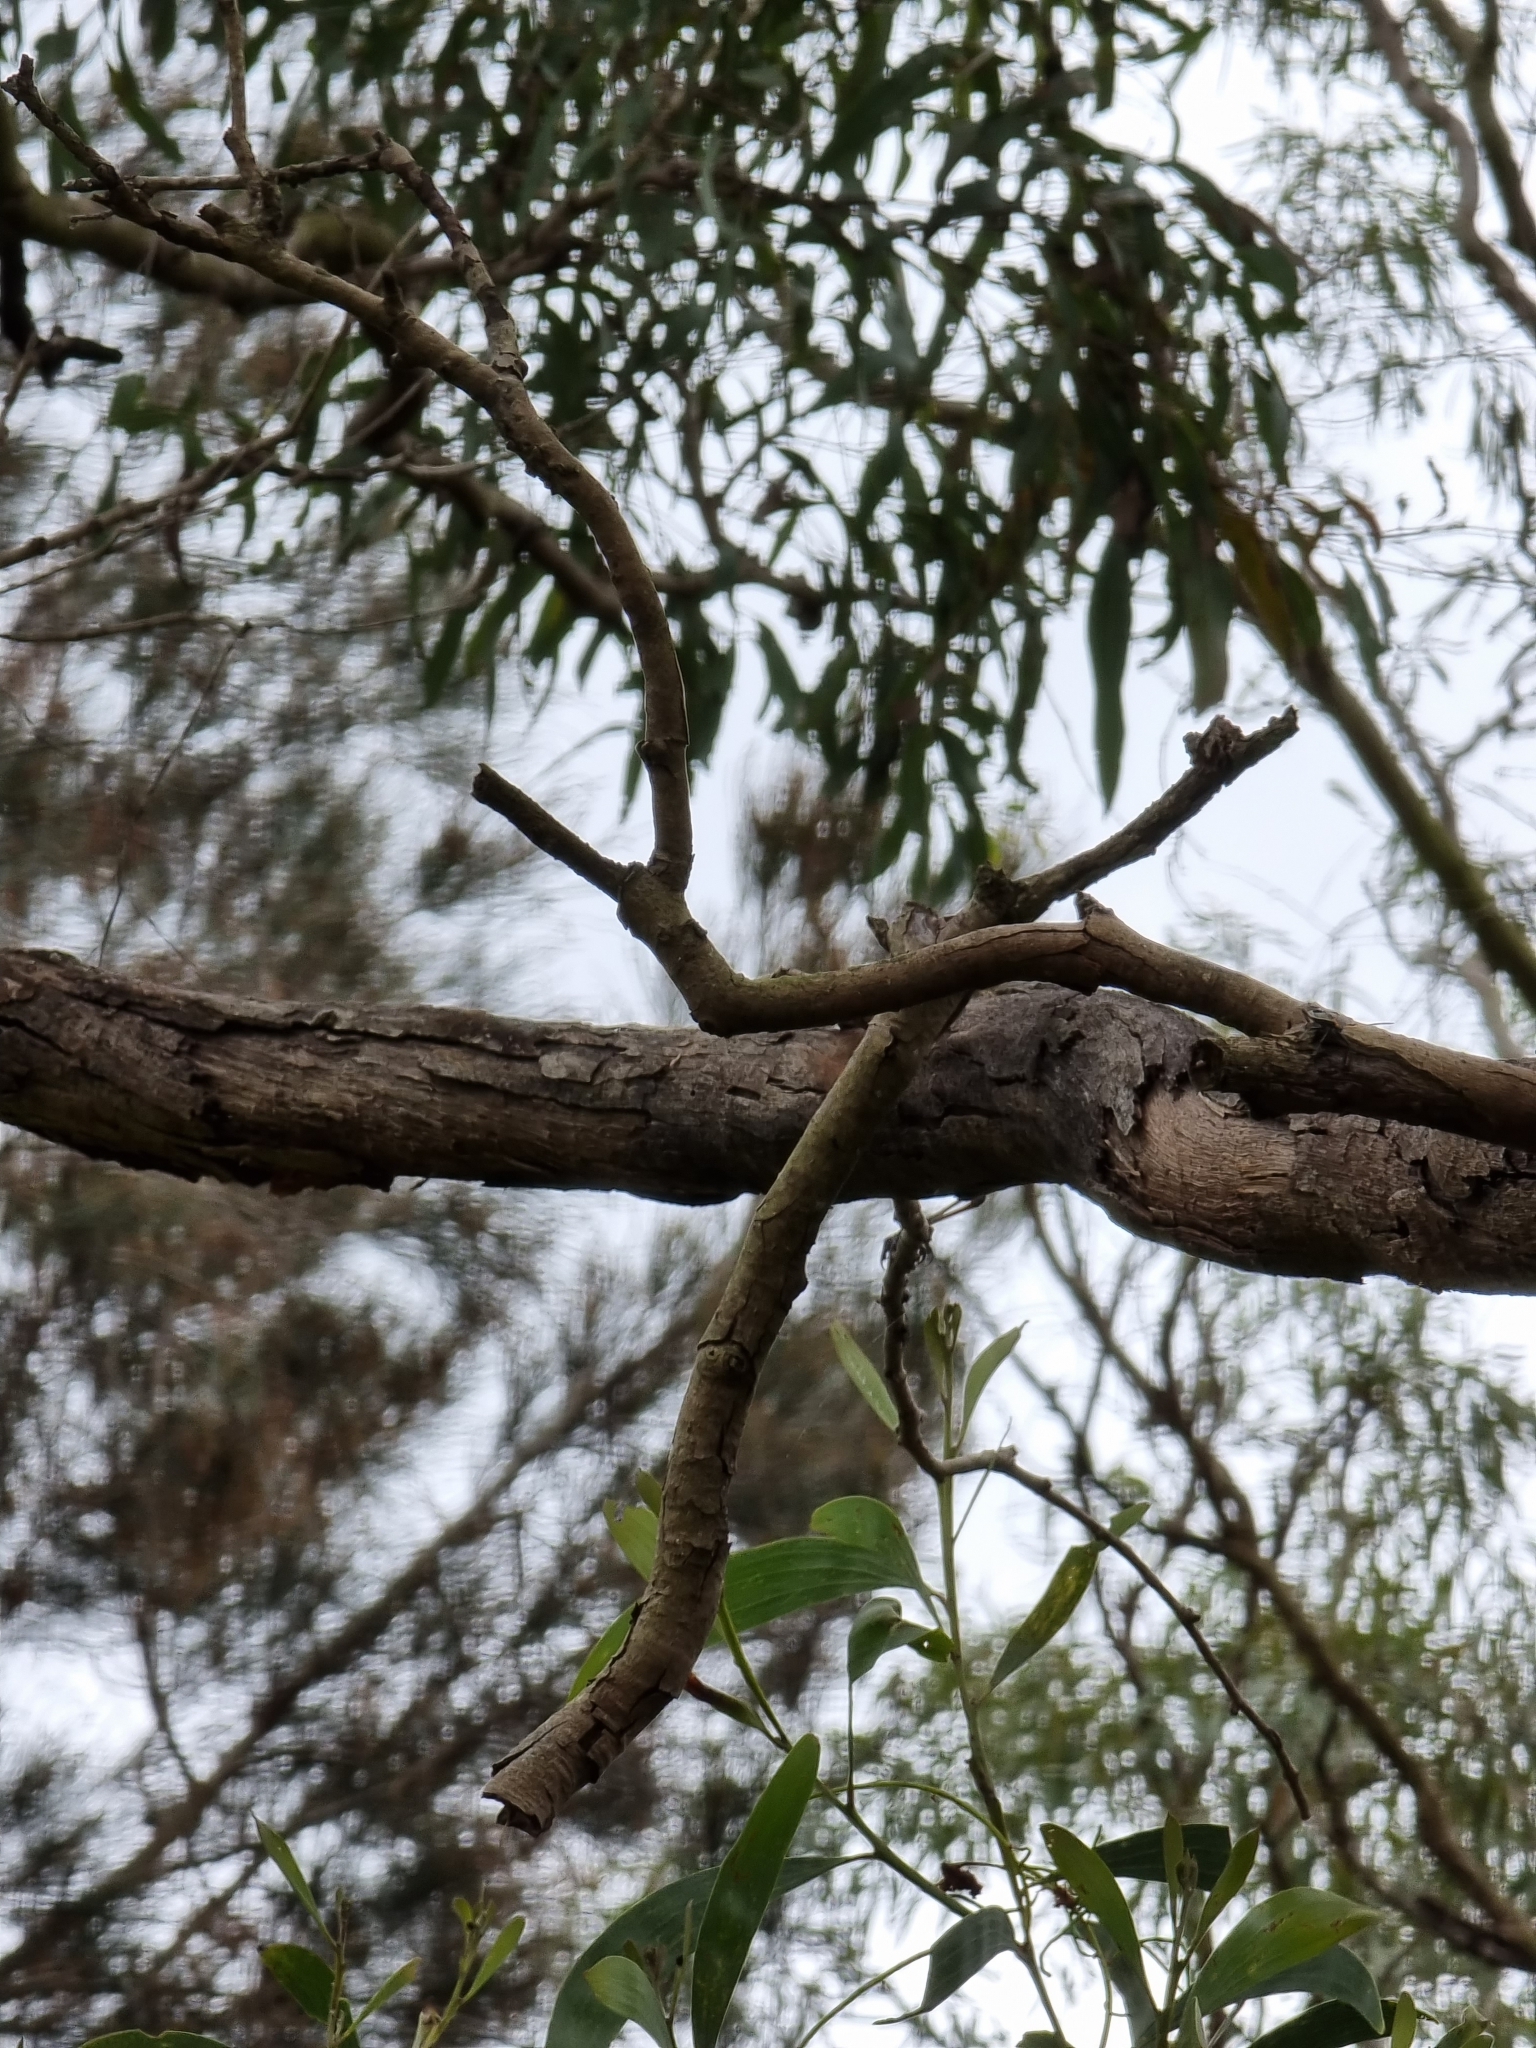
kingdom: Animalia
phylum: Chordata
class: Aves
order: Passeriformes
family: Maluridae
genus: Malurus
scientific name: Malurus cyaneus
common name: Superb fairywren
